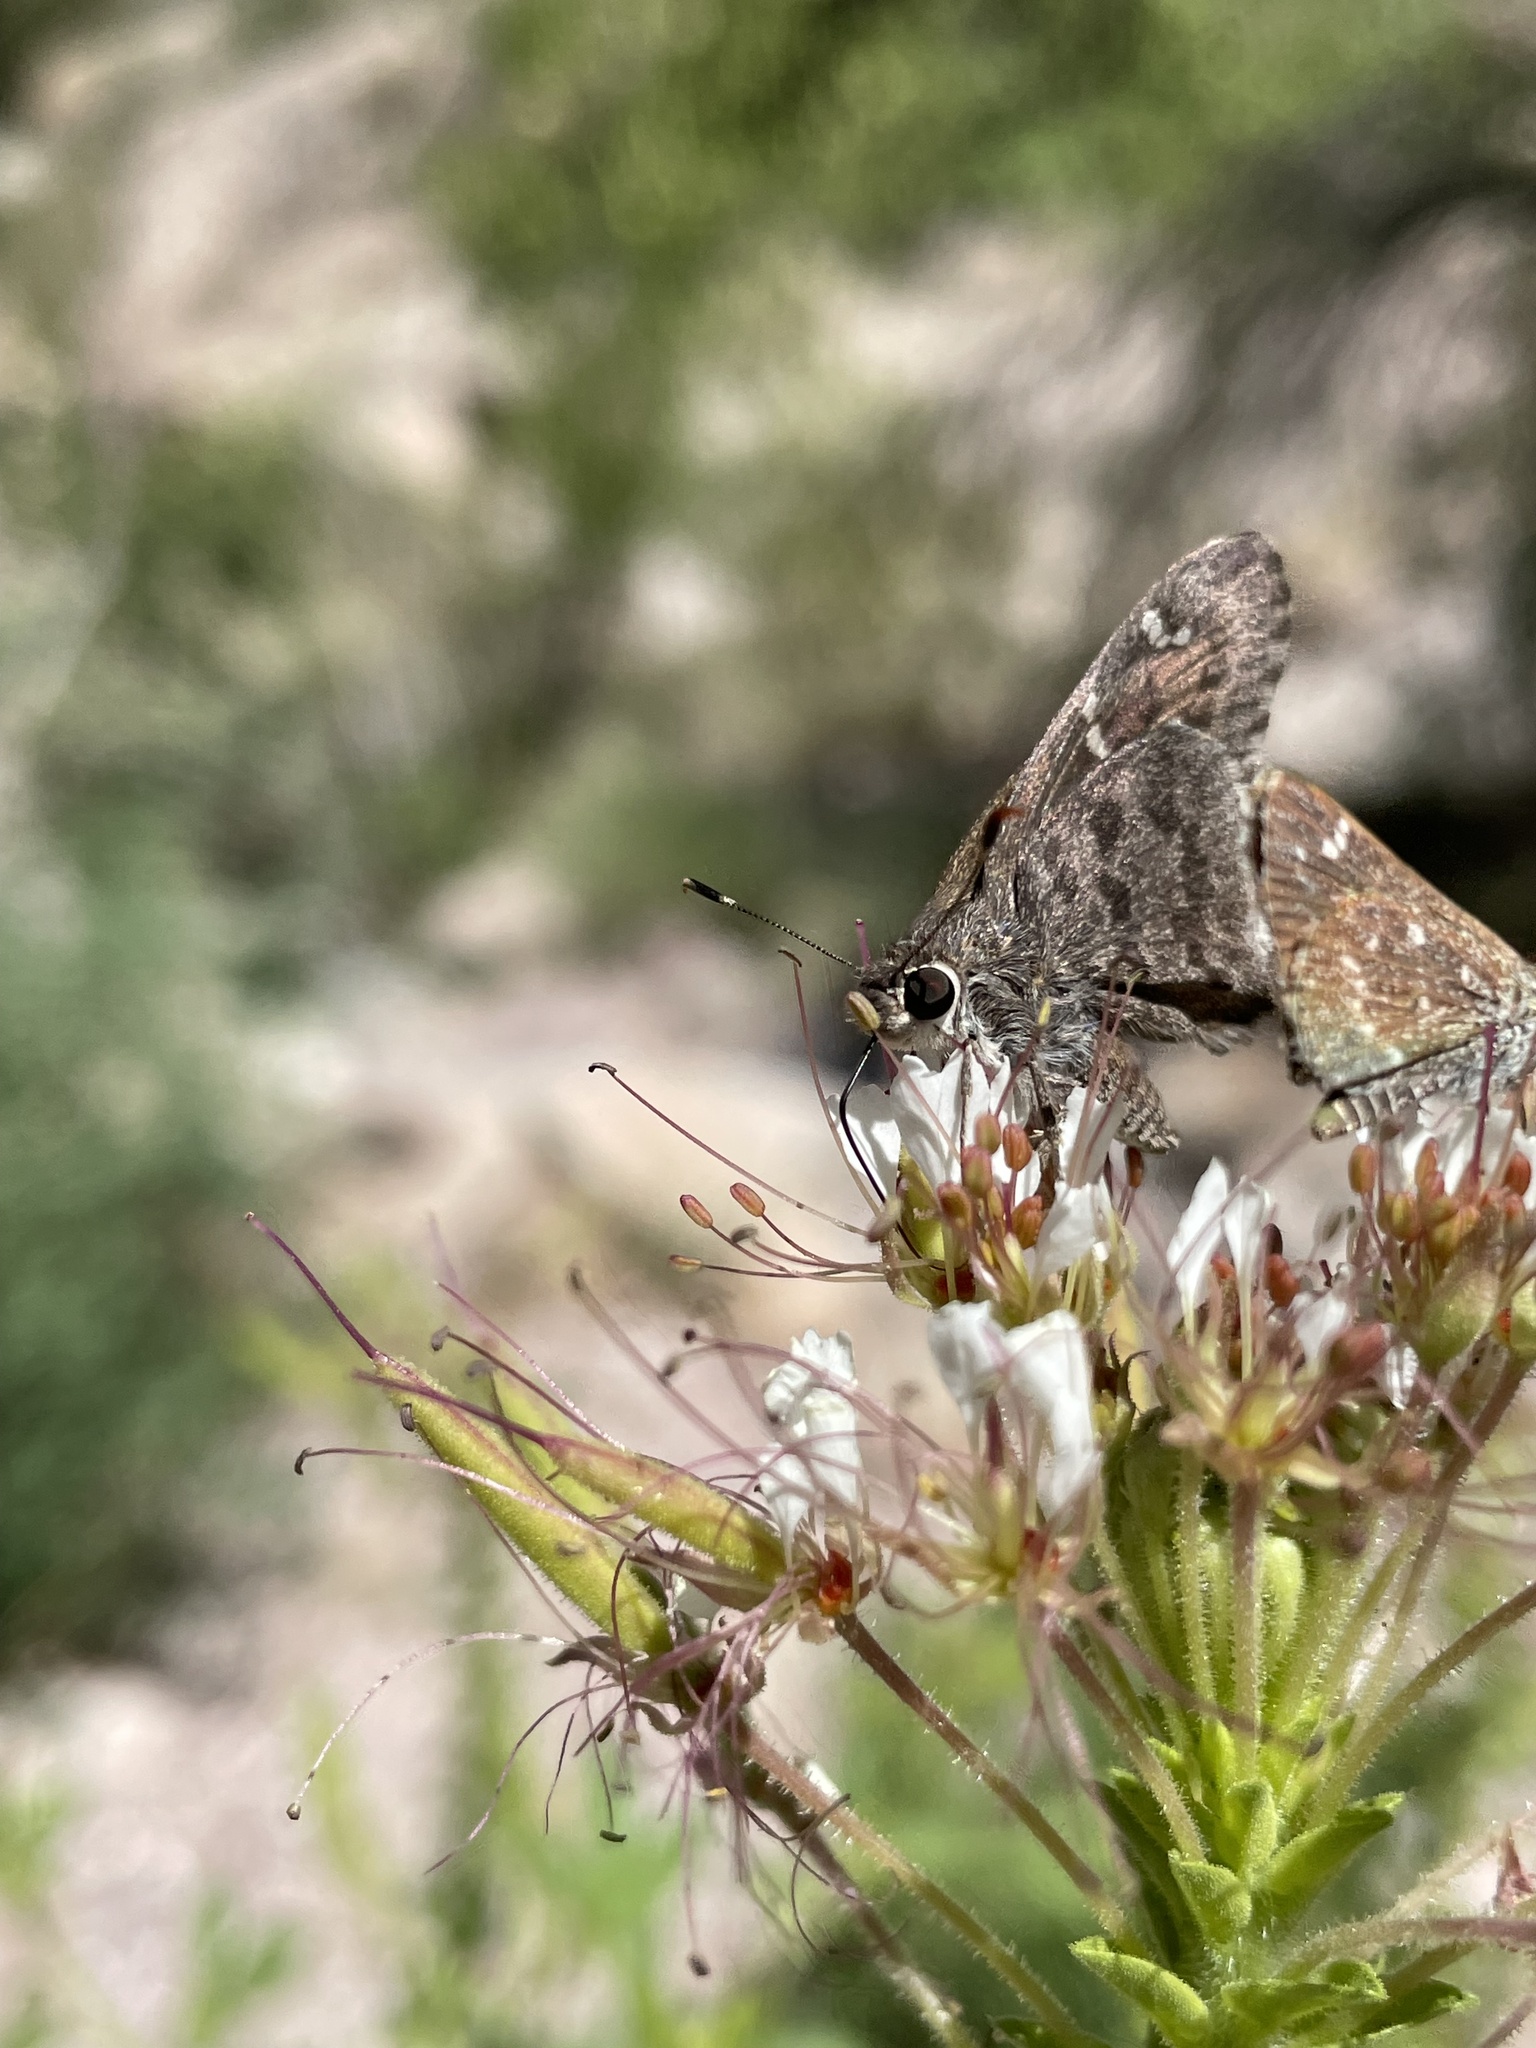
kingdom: Animalia
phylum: Arthropoda
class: Insecta
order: Lepidoptera
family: Hesperiidae
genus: Cogia
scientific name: Cogia hippalus
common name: Acacia skipper
